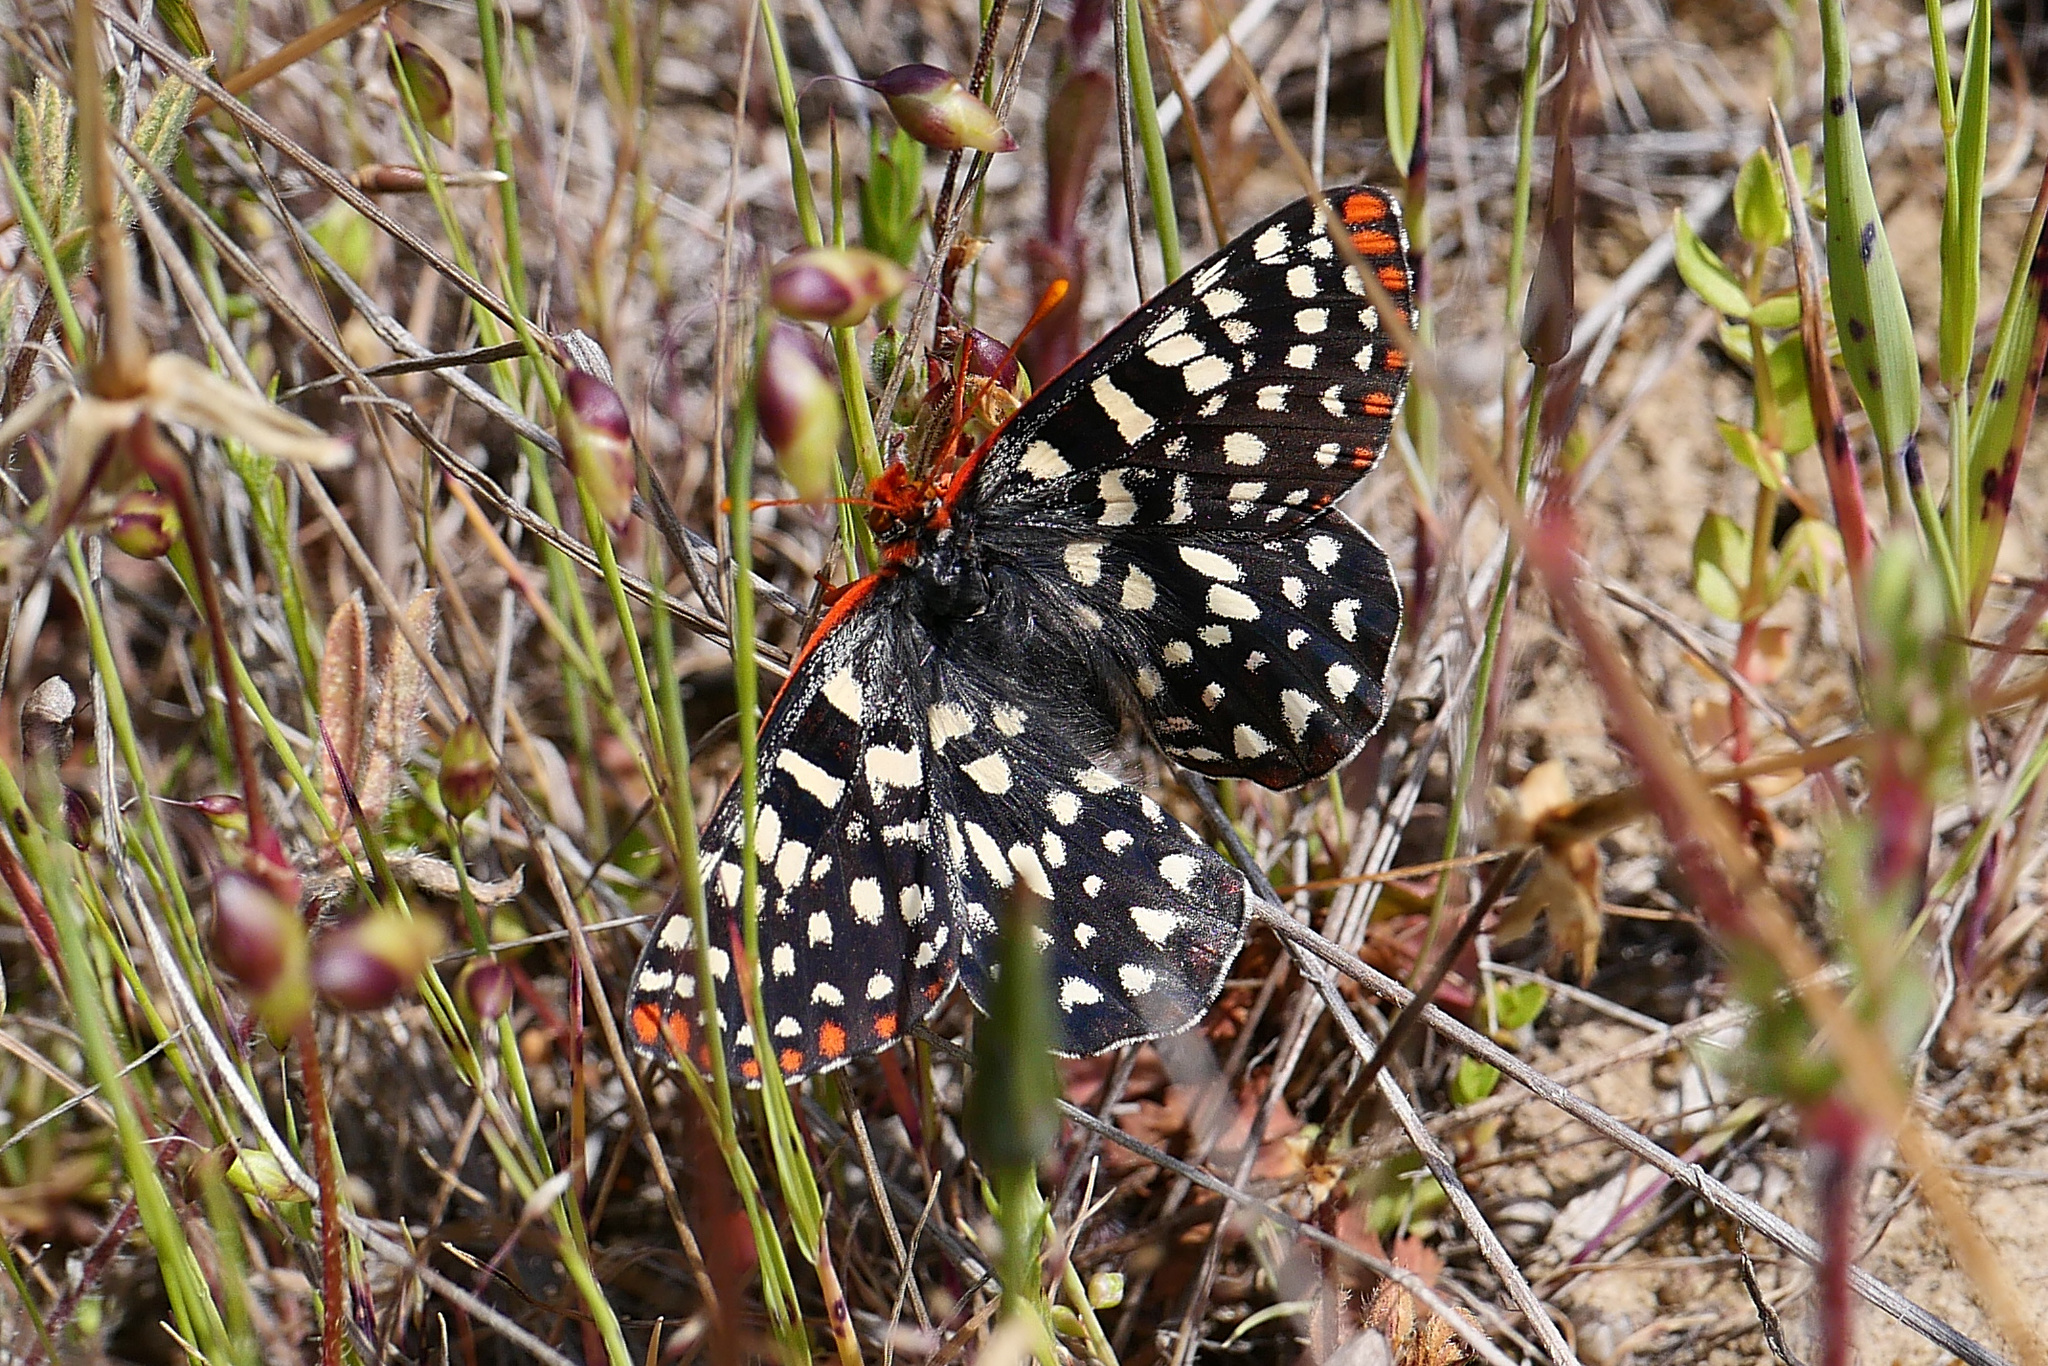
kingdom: Animalia
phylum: Arthropoda
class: Insecta
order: Lepidoptera
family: Nymphalidae
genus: Occidryas
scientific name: Occidryas chalcedona
